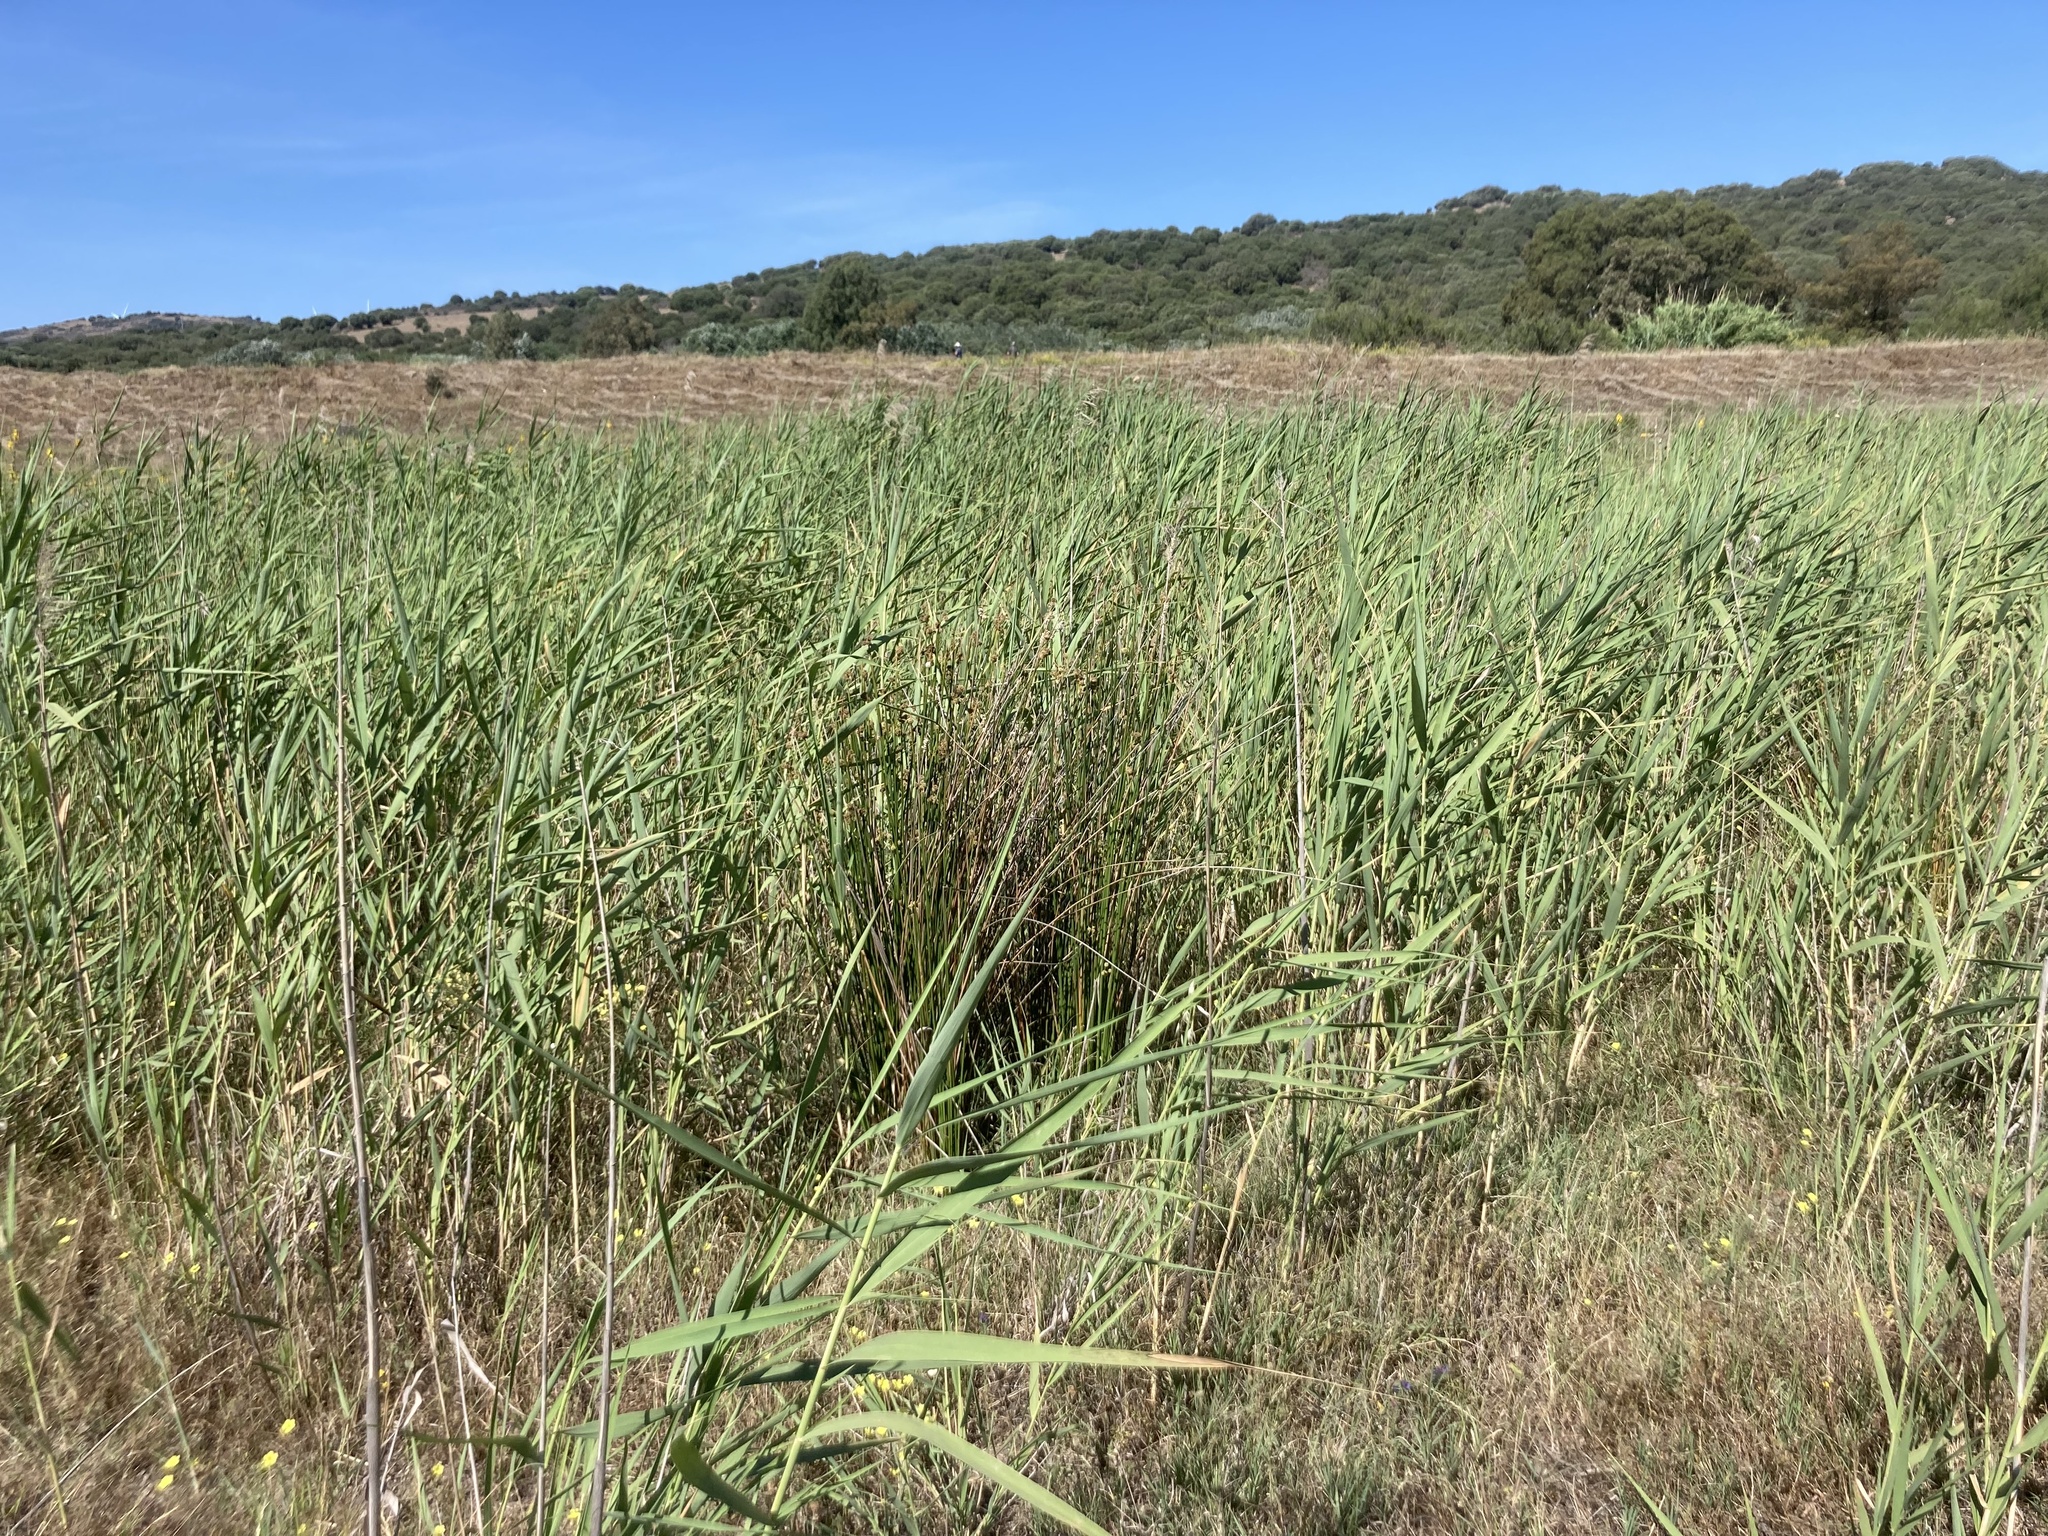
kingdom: Plantae
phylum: Tracheophyta
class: Liliopsida
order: Poales
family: Poaceae
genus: Arundo
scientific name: Arundo donax
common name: Giant reed
